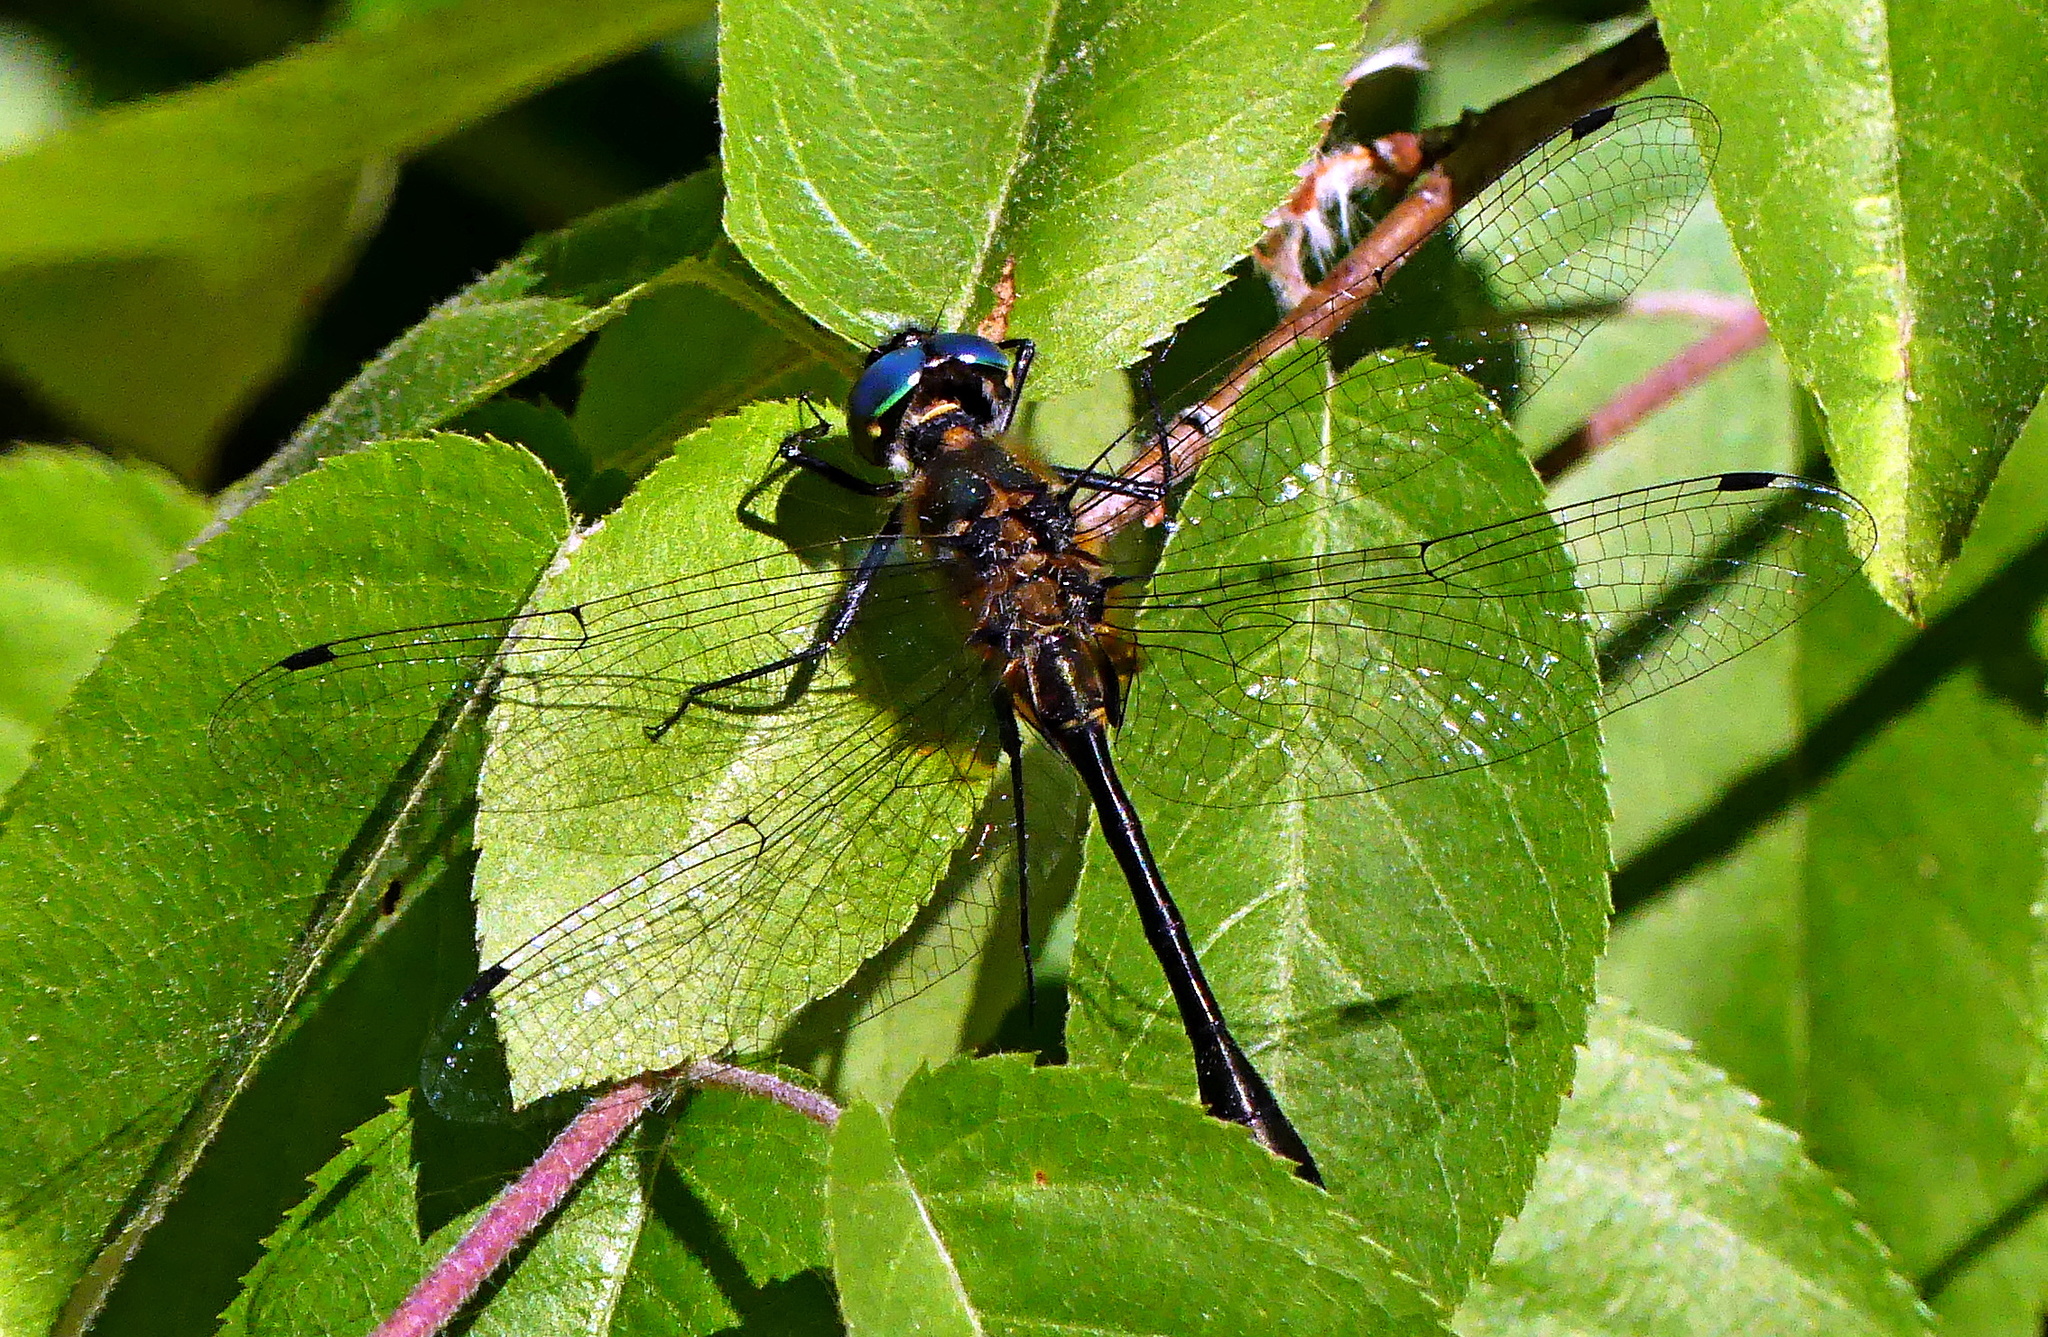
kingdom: Animalia
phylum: Arthropoda
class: Insecta
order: Odonata
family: Corduliidae
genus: Dorocordulia
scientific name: Dorocordulia libera
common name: Racket-tailed emerald
